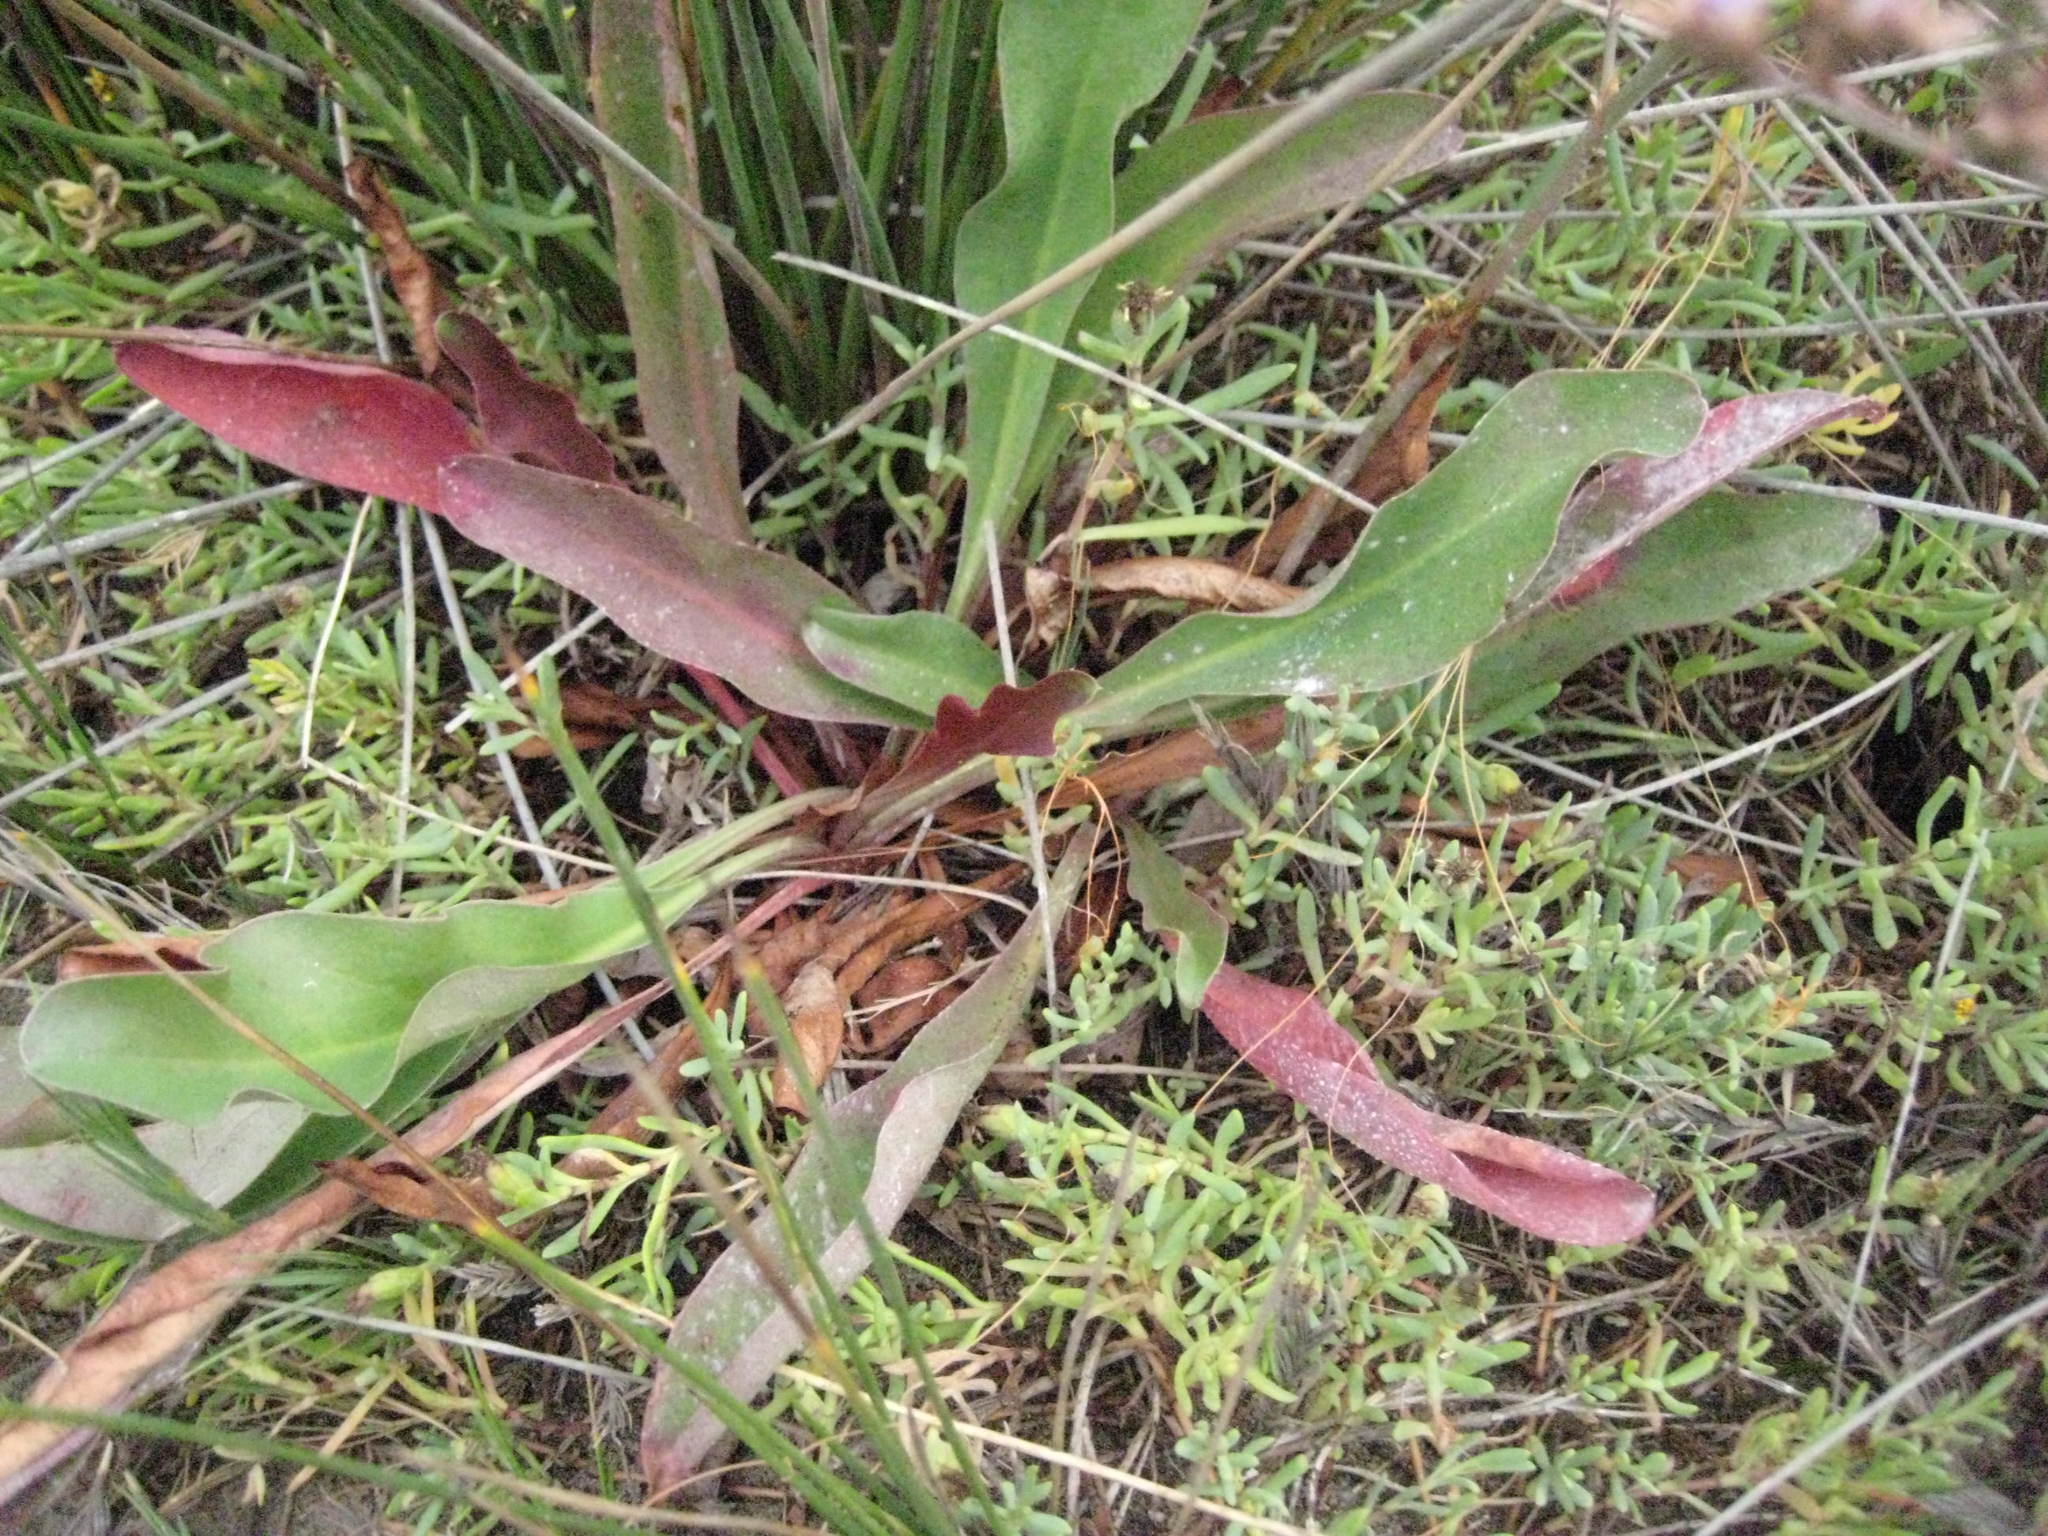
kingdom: Plantae
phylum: Tracheophyta
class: Magnoliopsida
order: Caryophyllales
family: Plumbaginaceae
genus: Limonium
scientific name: Limonium californicum
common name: Marsh-rosemary
